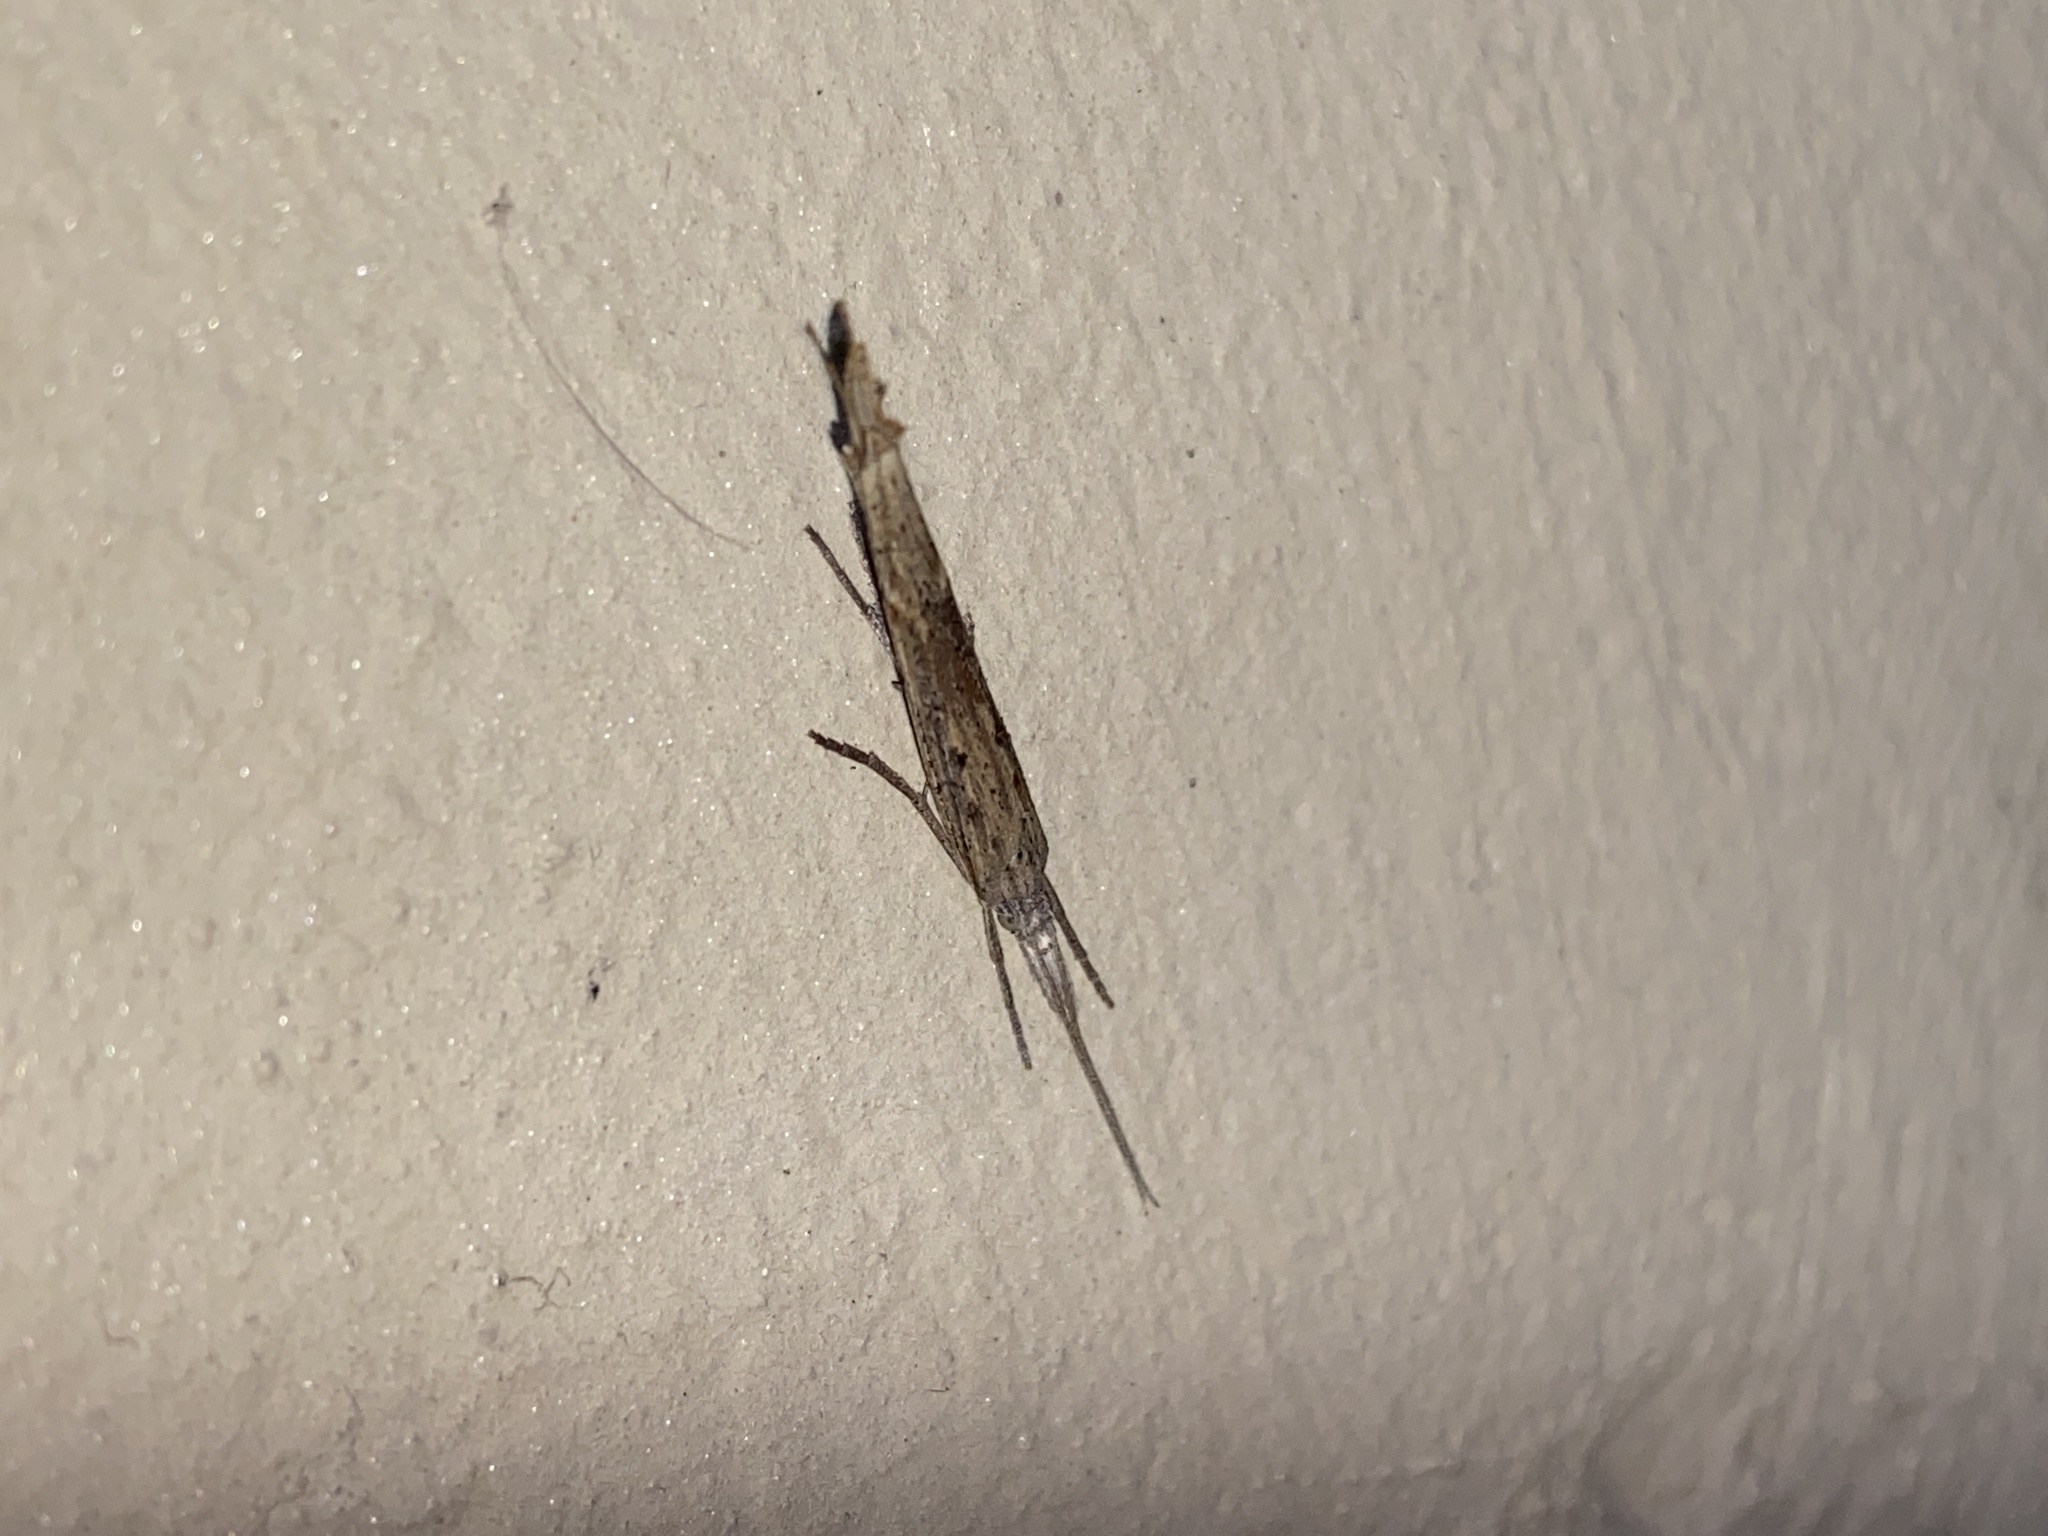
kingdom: Animalia
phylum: Arthropoda
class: Insecta
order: Lepidoptera
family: Ypsolophidae
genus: Ypsolopha
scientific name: Ypsolopha mucronella
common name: Spindle smudge
